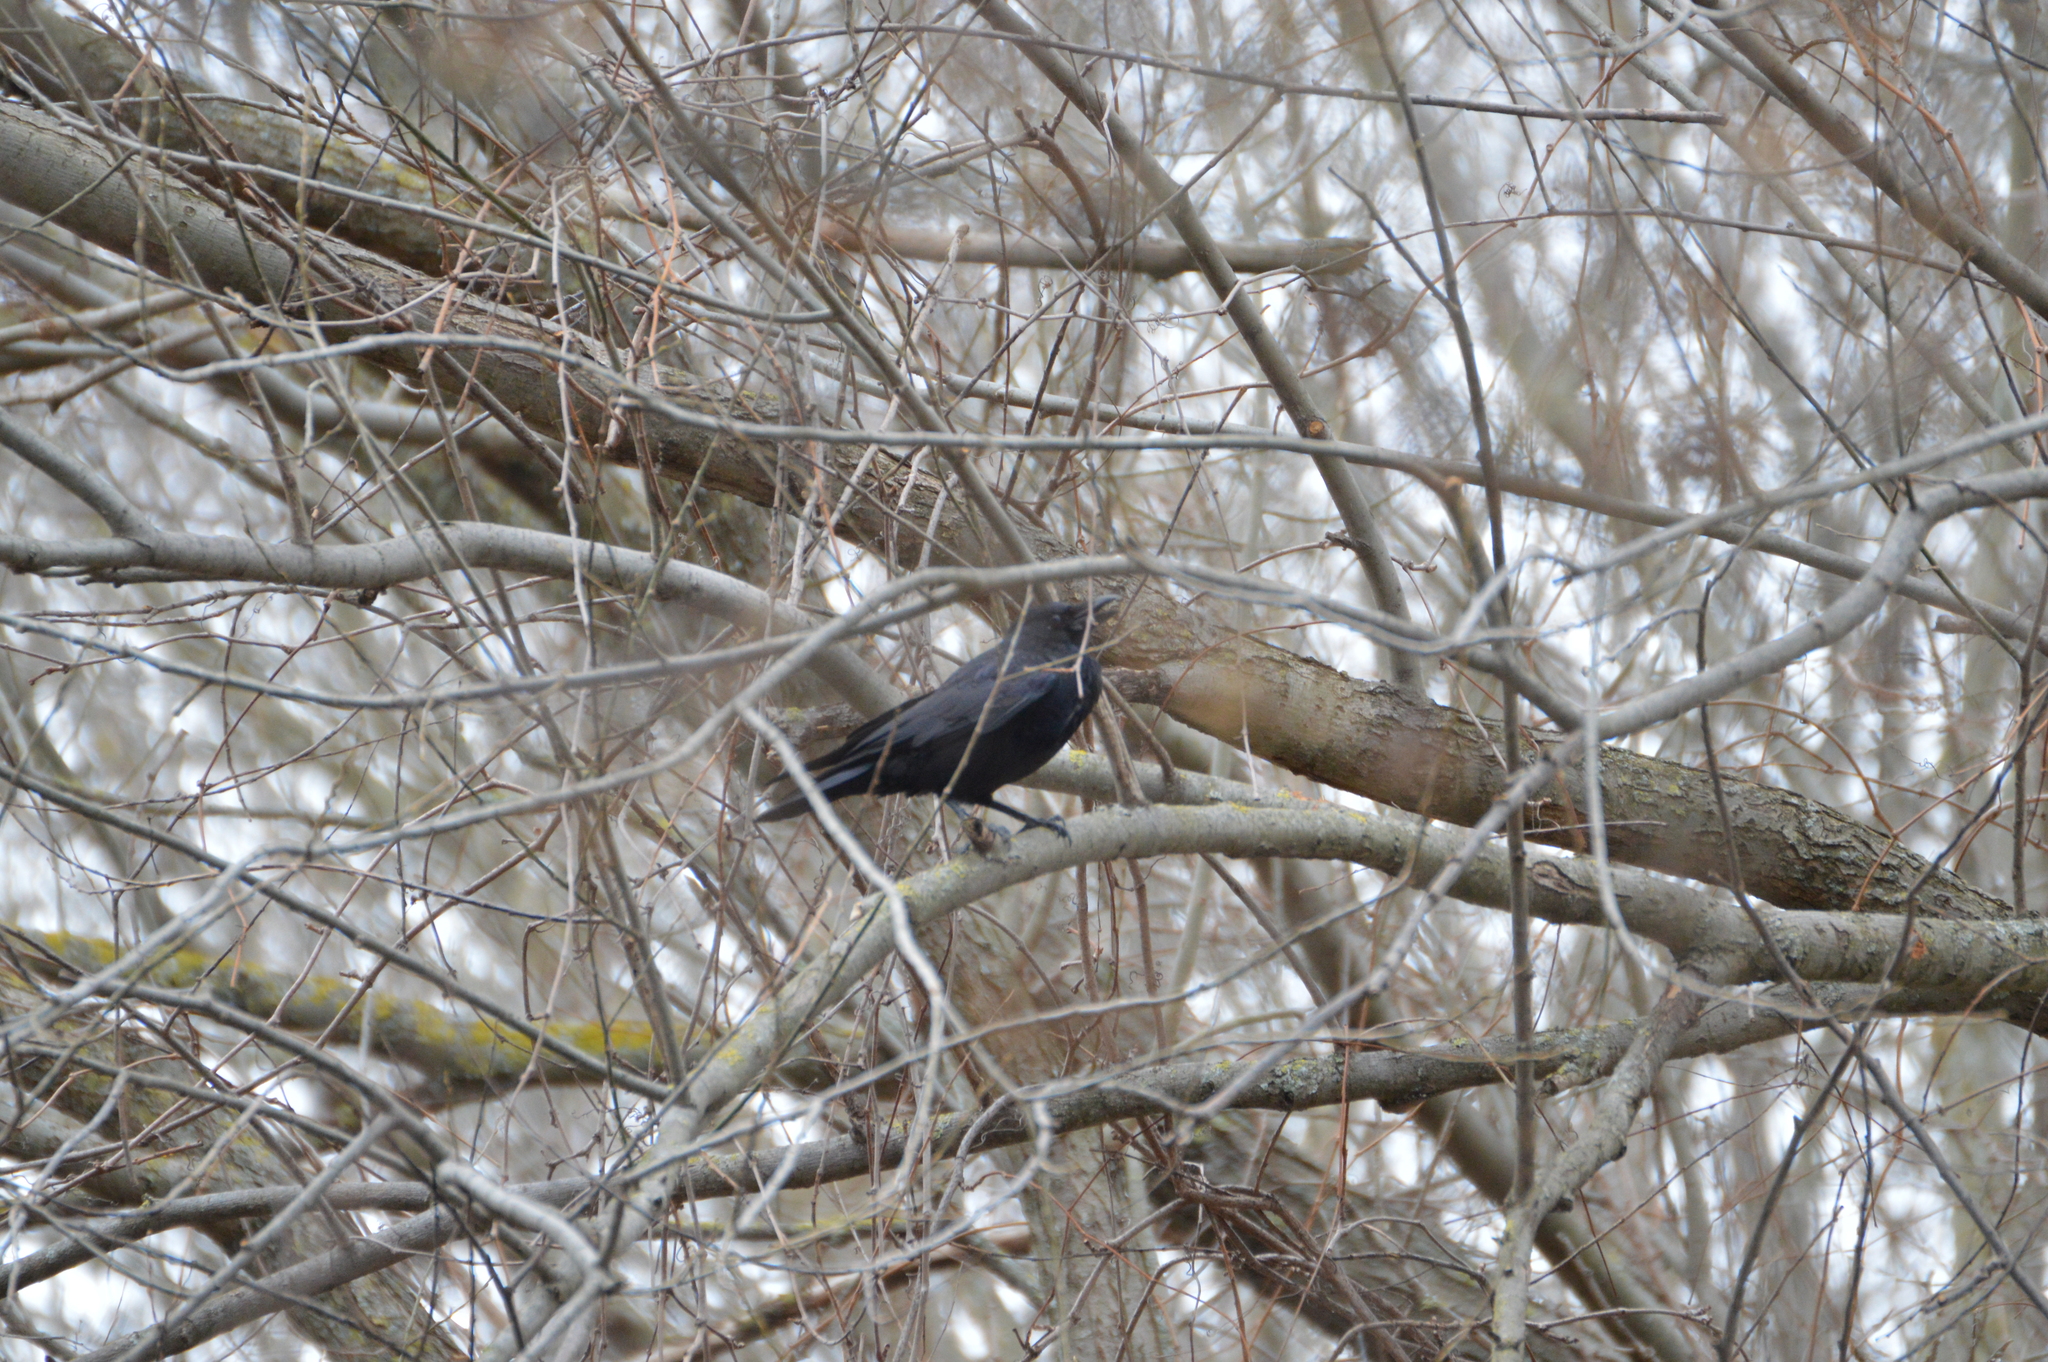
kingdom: Animalia
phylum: Chordata
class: Aves
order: Passeriformes
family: Corvidae
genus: Corvus
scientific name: Corvus corone
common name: Carrion crow
